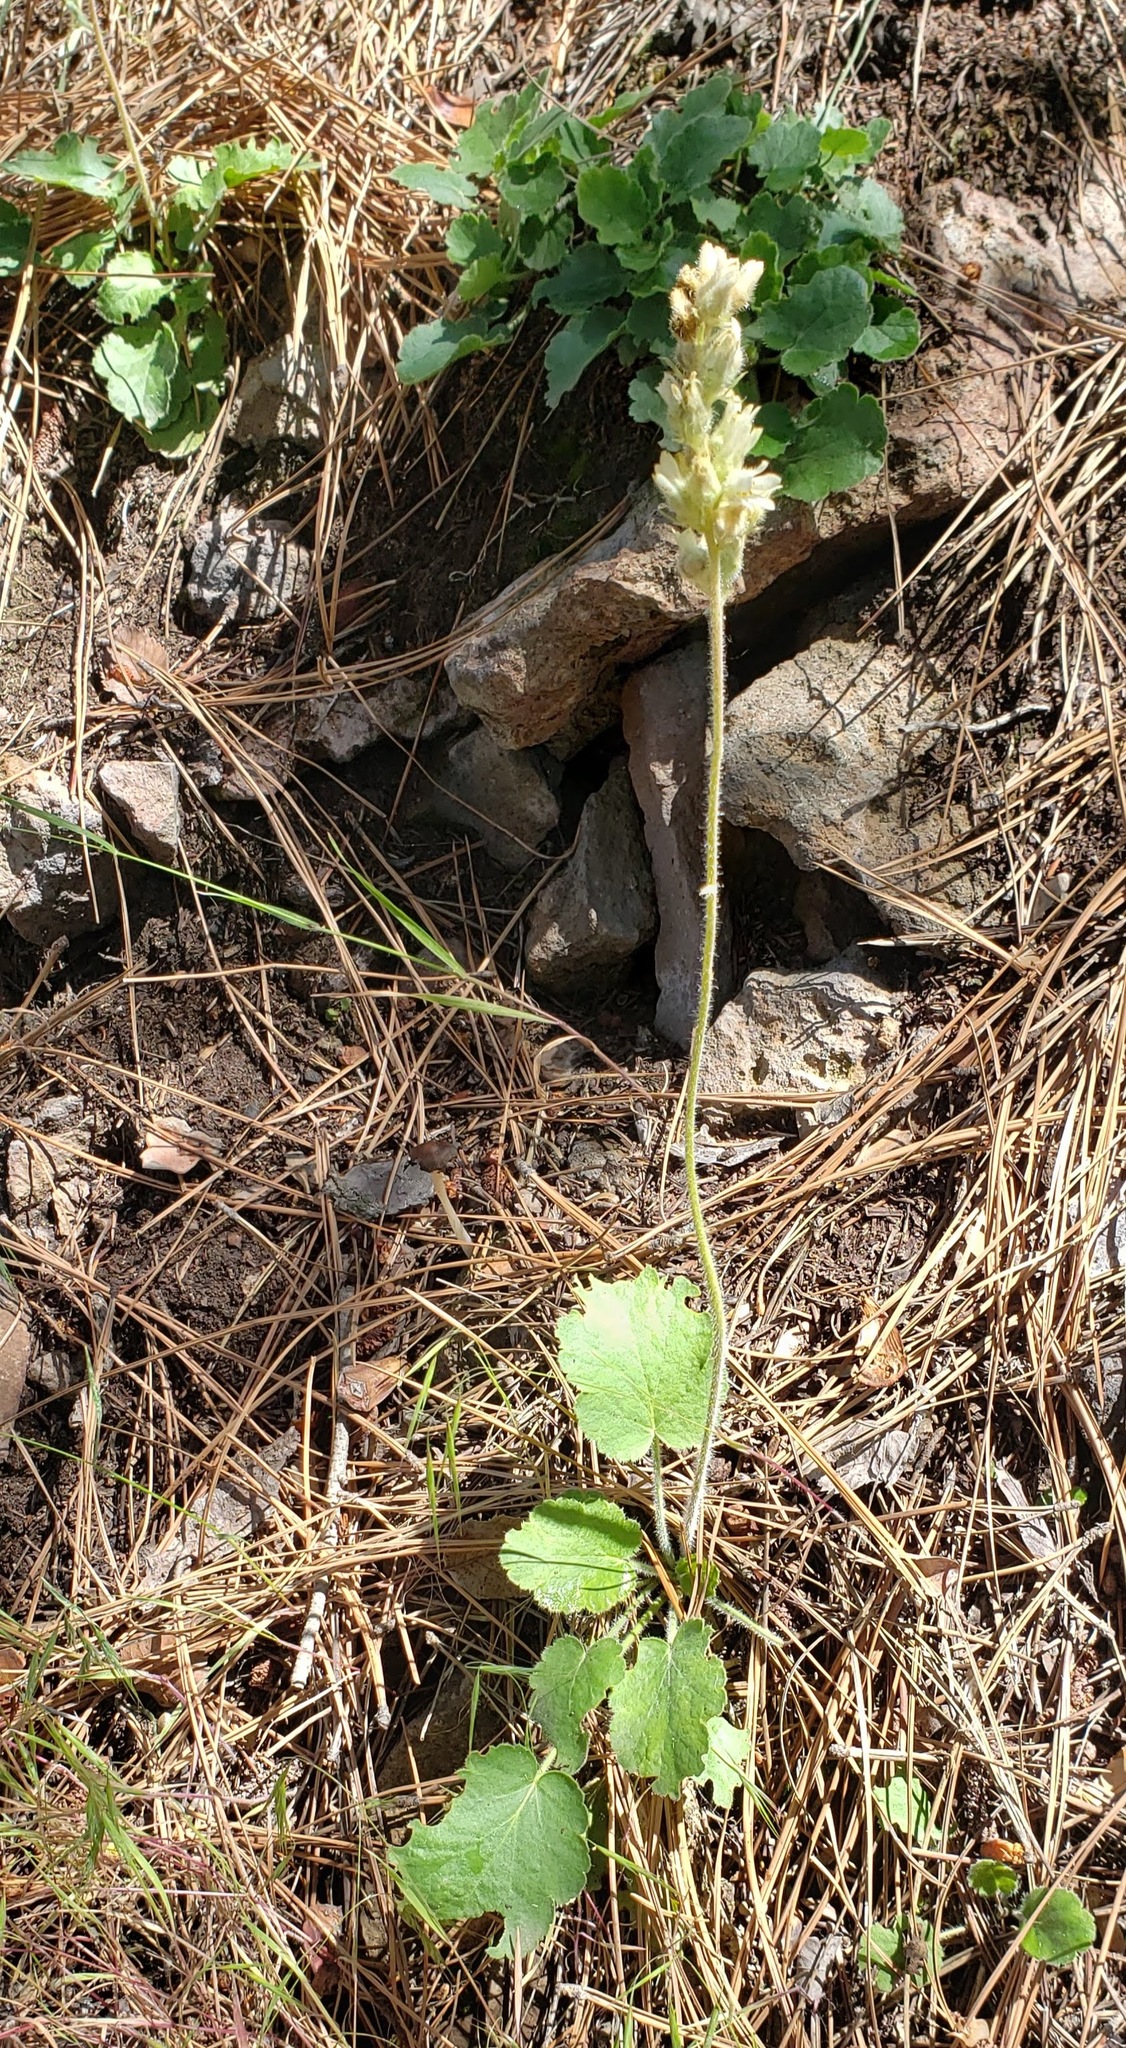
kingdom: Plantae
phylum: Tracheophyta
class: Magnoliopsida
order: Saxifragales
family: Saxifragaceae
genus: Heuchera
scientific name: Heuchera cylindrica
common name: Mat alumroot
